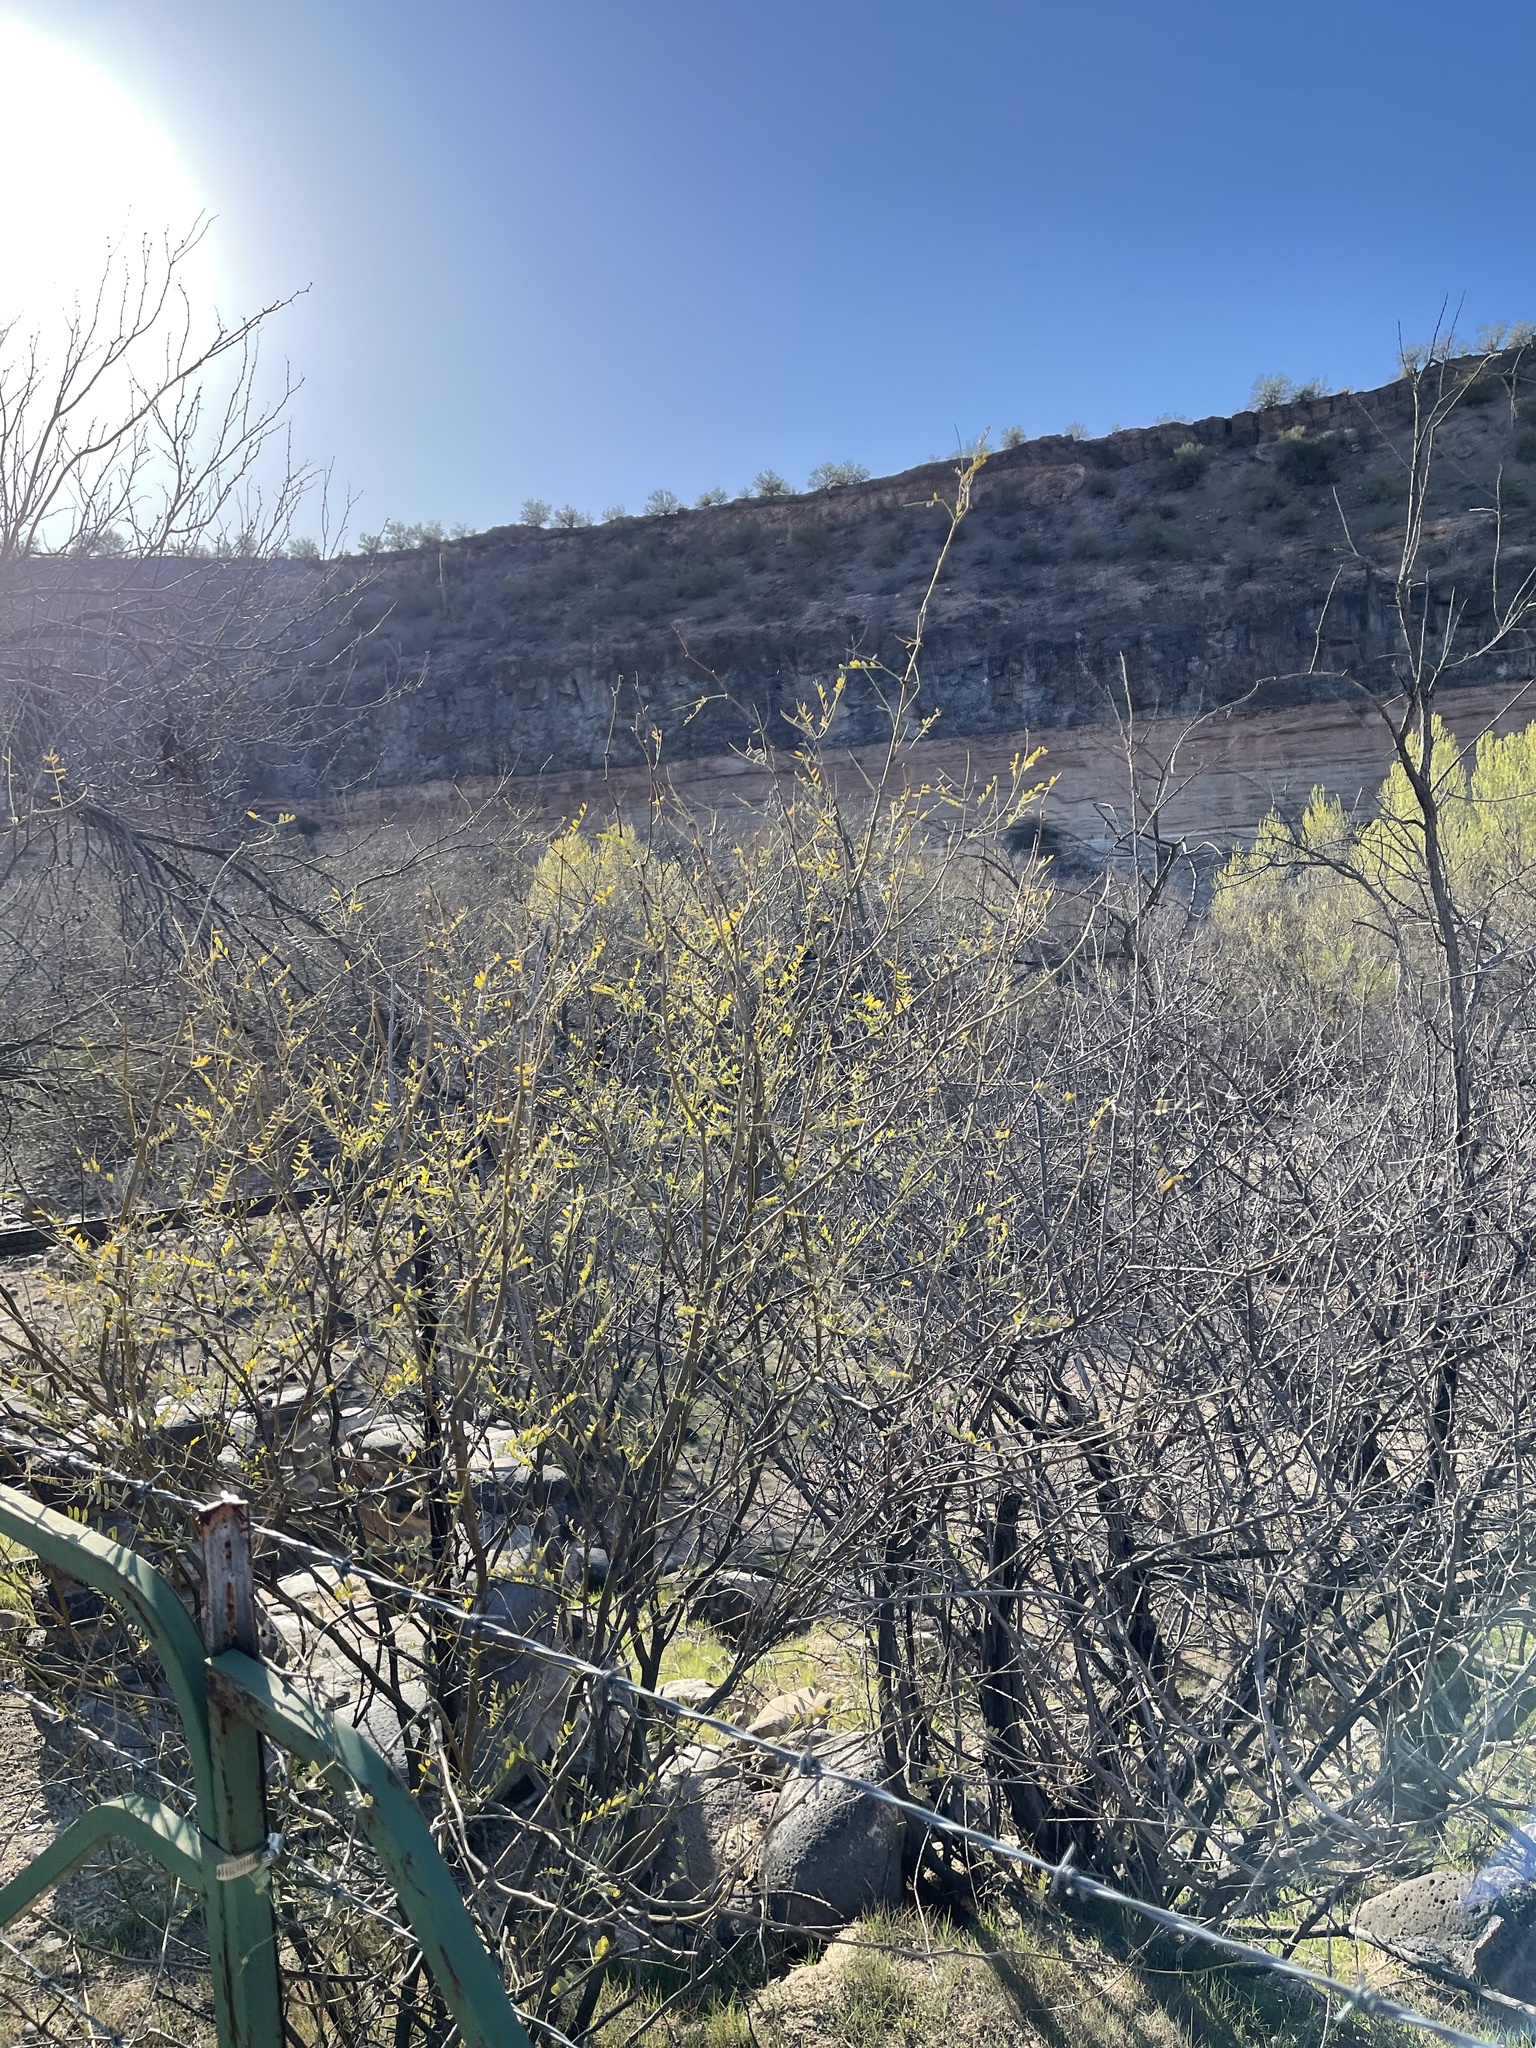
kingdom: Plantae
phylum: Tracheophyta
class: Magnoliopsida
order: Fabales
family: Fabaceae
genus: Prosopis
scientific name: Prosopis velutina
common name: Velvet mesquite
